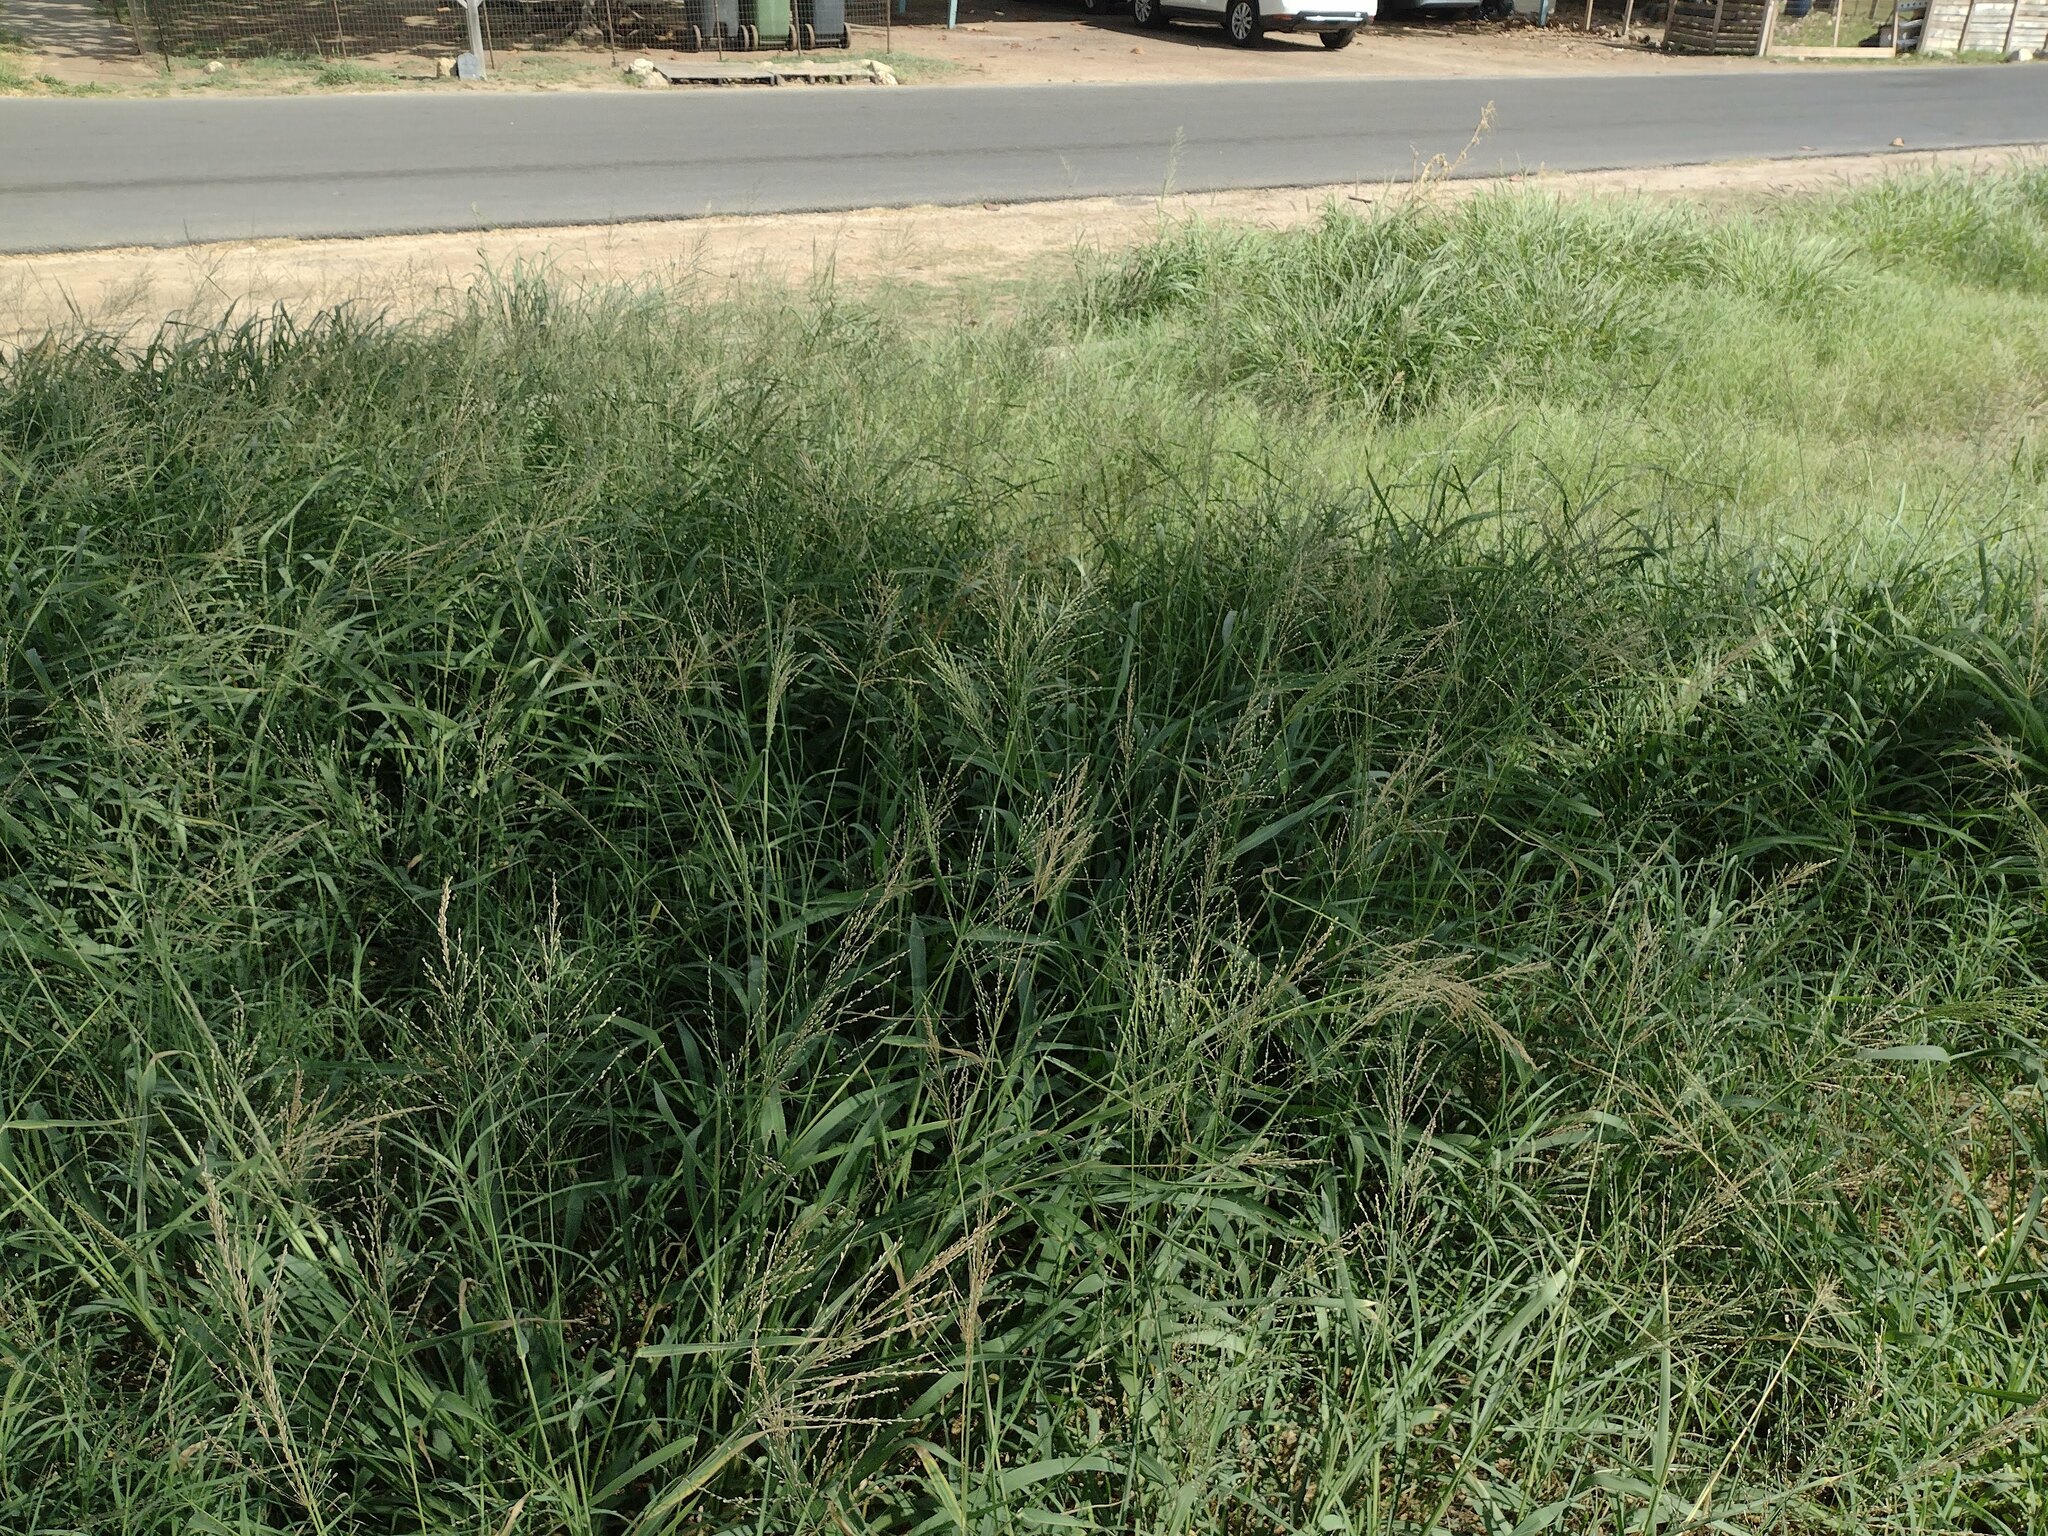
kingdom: Plantae
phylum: Tracheophyta
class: Liliopsida
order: Poales
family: Poaceae
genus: Megathyrsus
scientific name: Megathyrsus maximus
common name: Guineagrass
